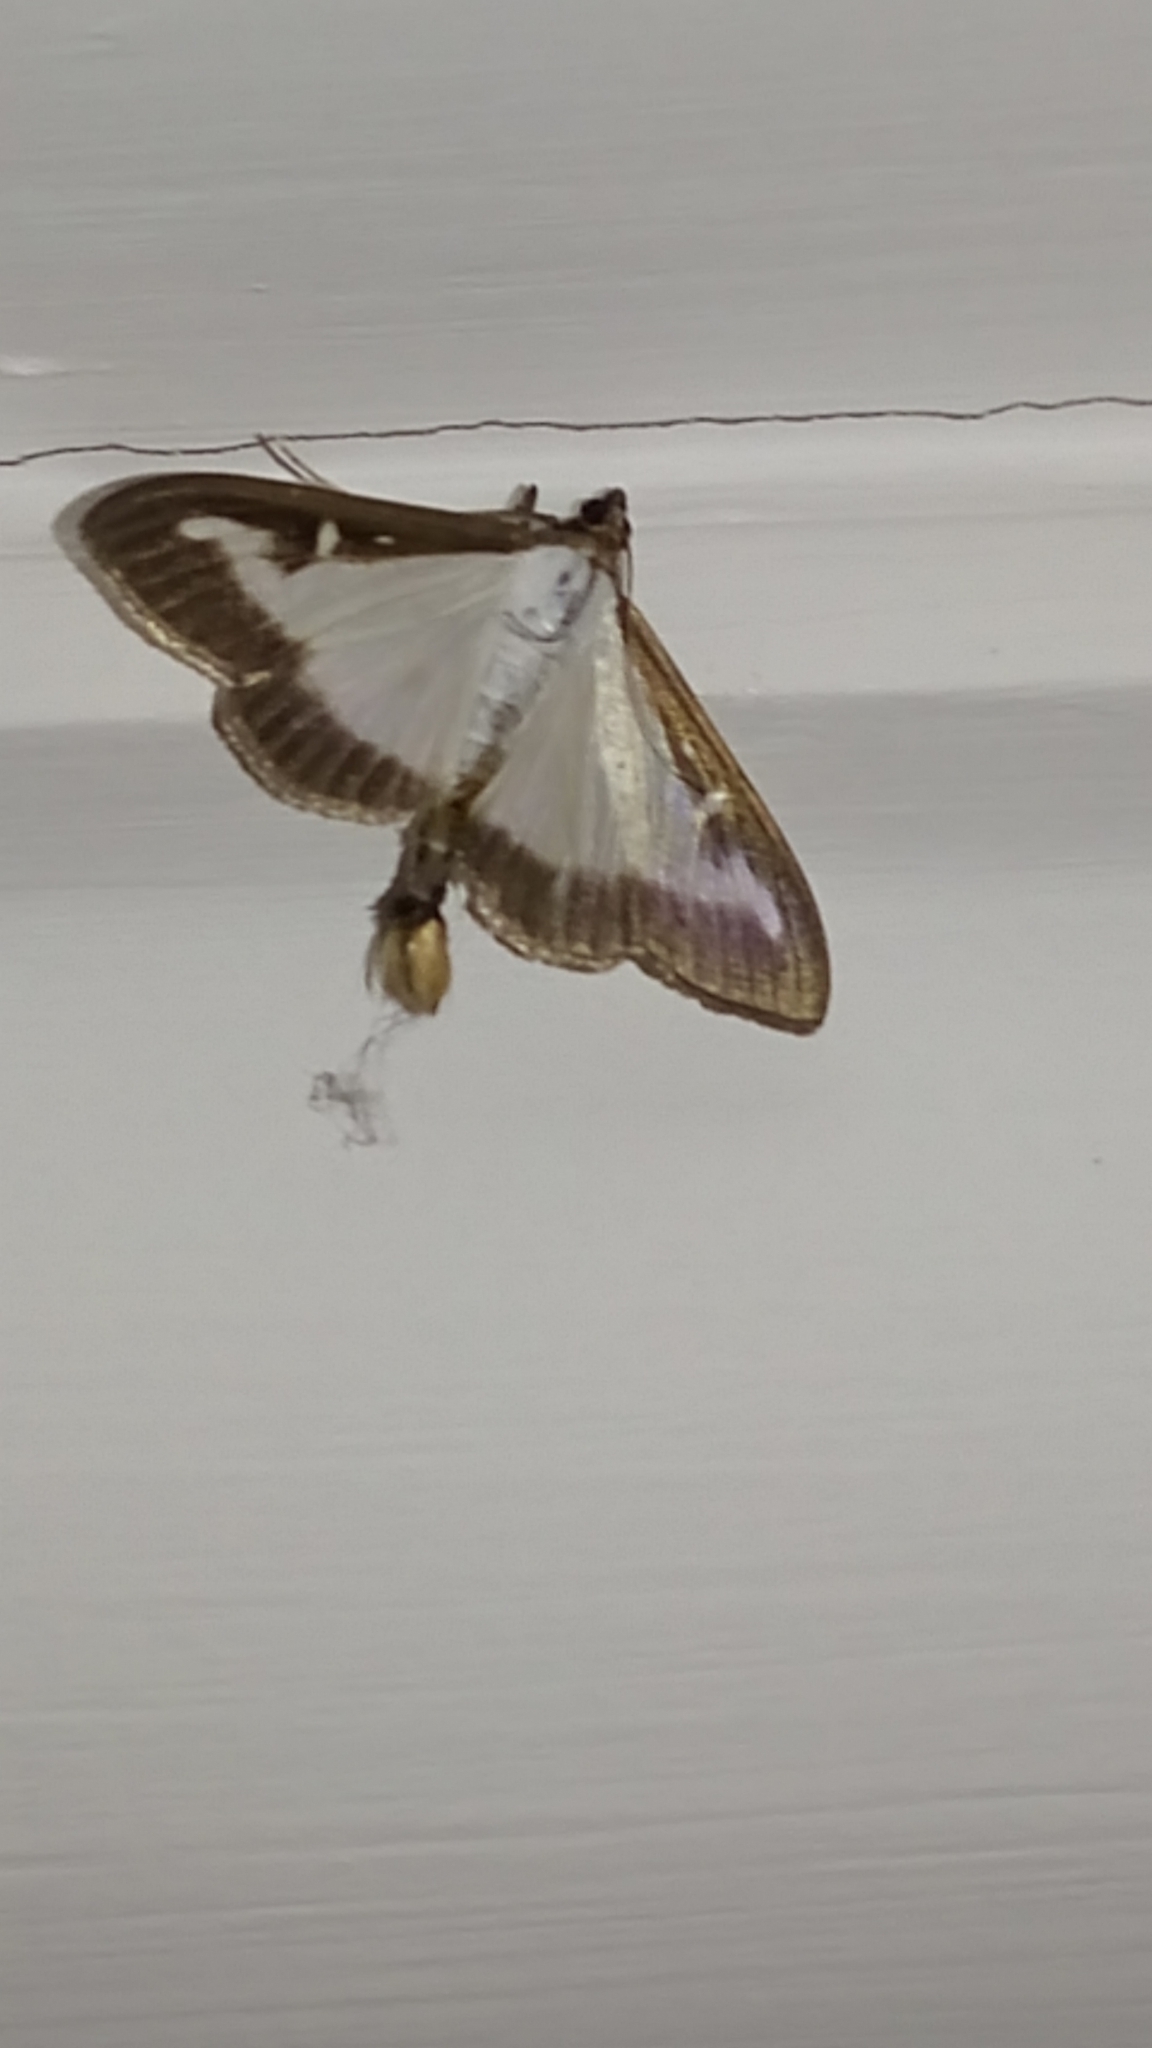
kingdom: Animalia
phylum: Arthropoda
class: Insecta
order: Lepidoptera
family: Crambidae
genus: Cydalima
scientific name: Cydalima perspectalis
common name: Box tree moth
